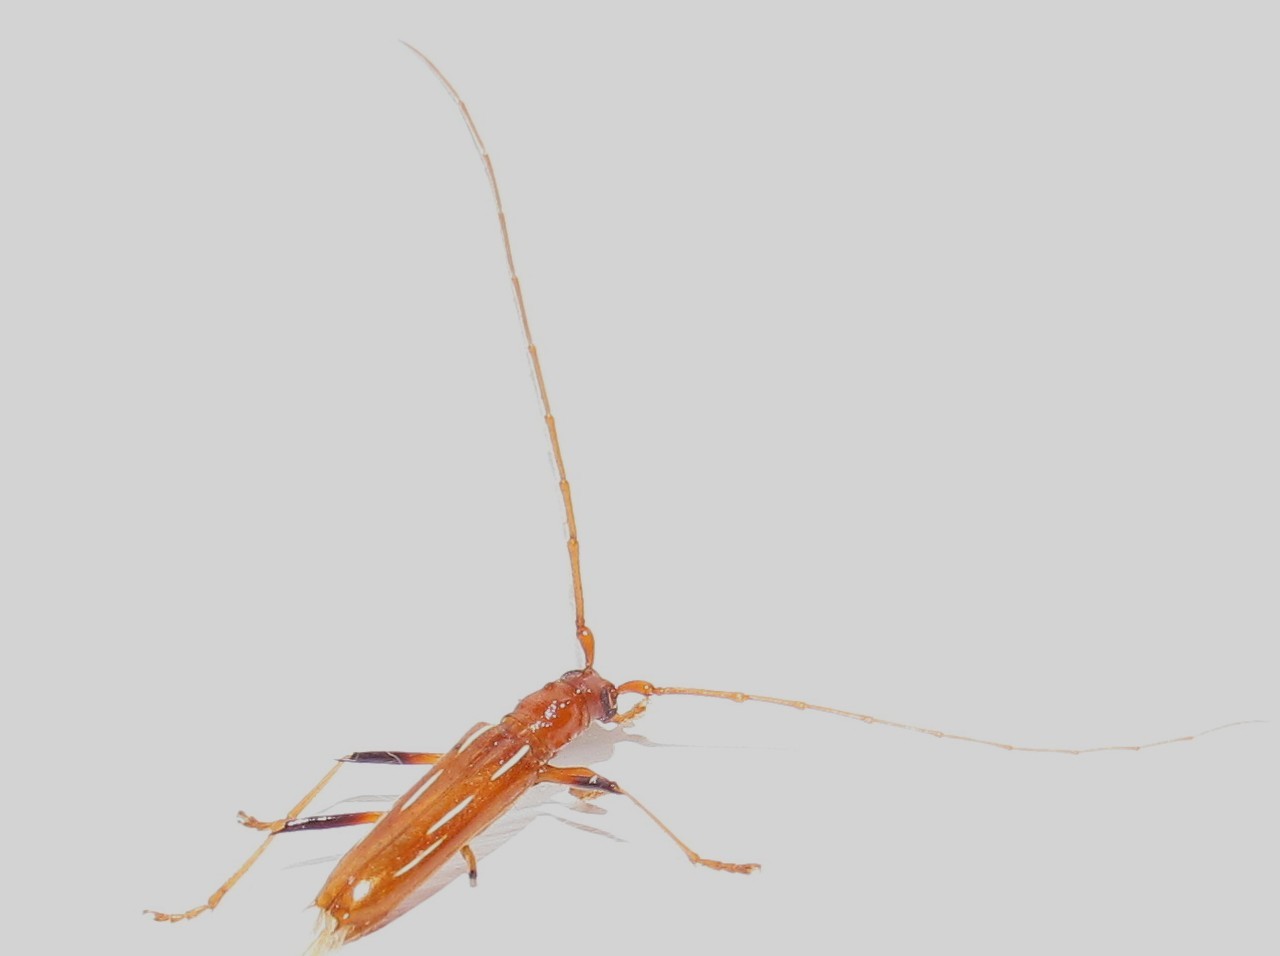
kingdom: Animalia
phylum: Arthropoda
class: Insecta
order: Coleoptera
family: Cerambycidae
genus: Eburodacrys
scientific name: Eburodacrys catarina
